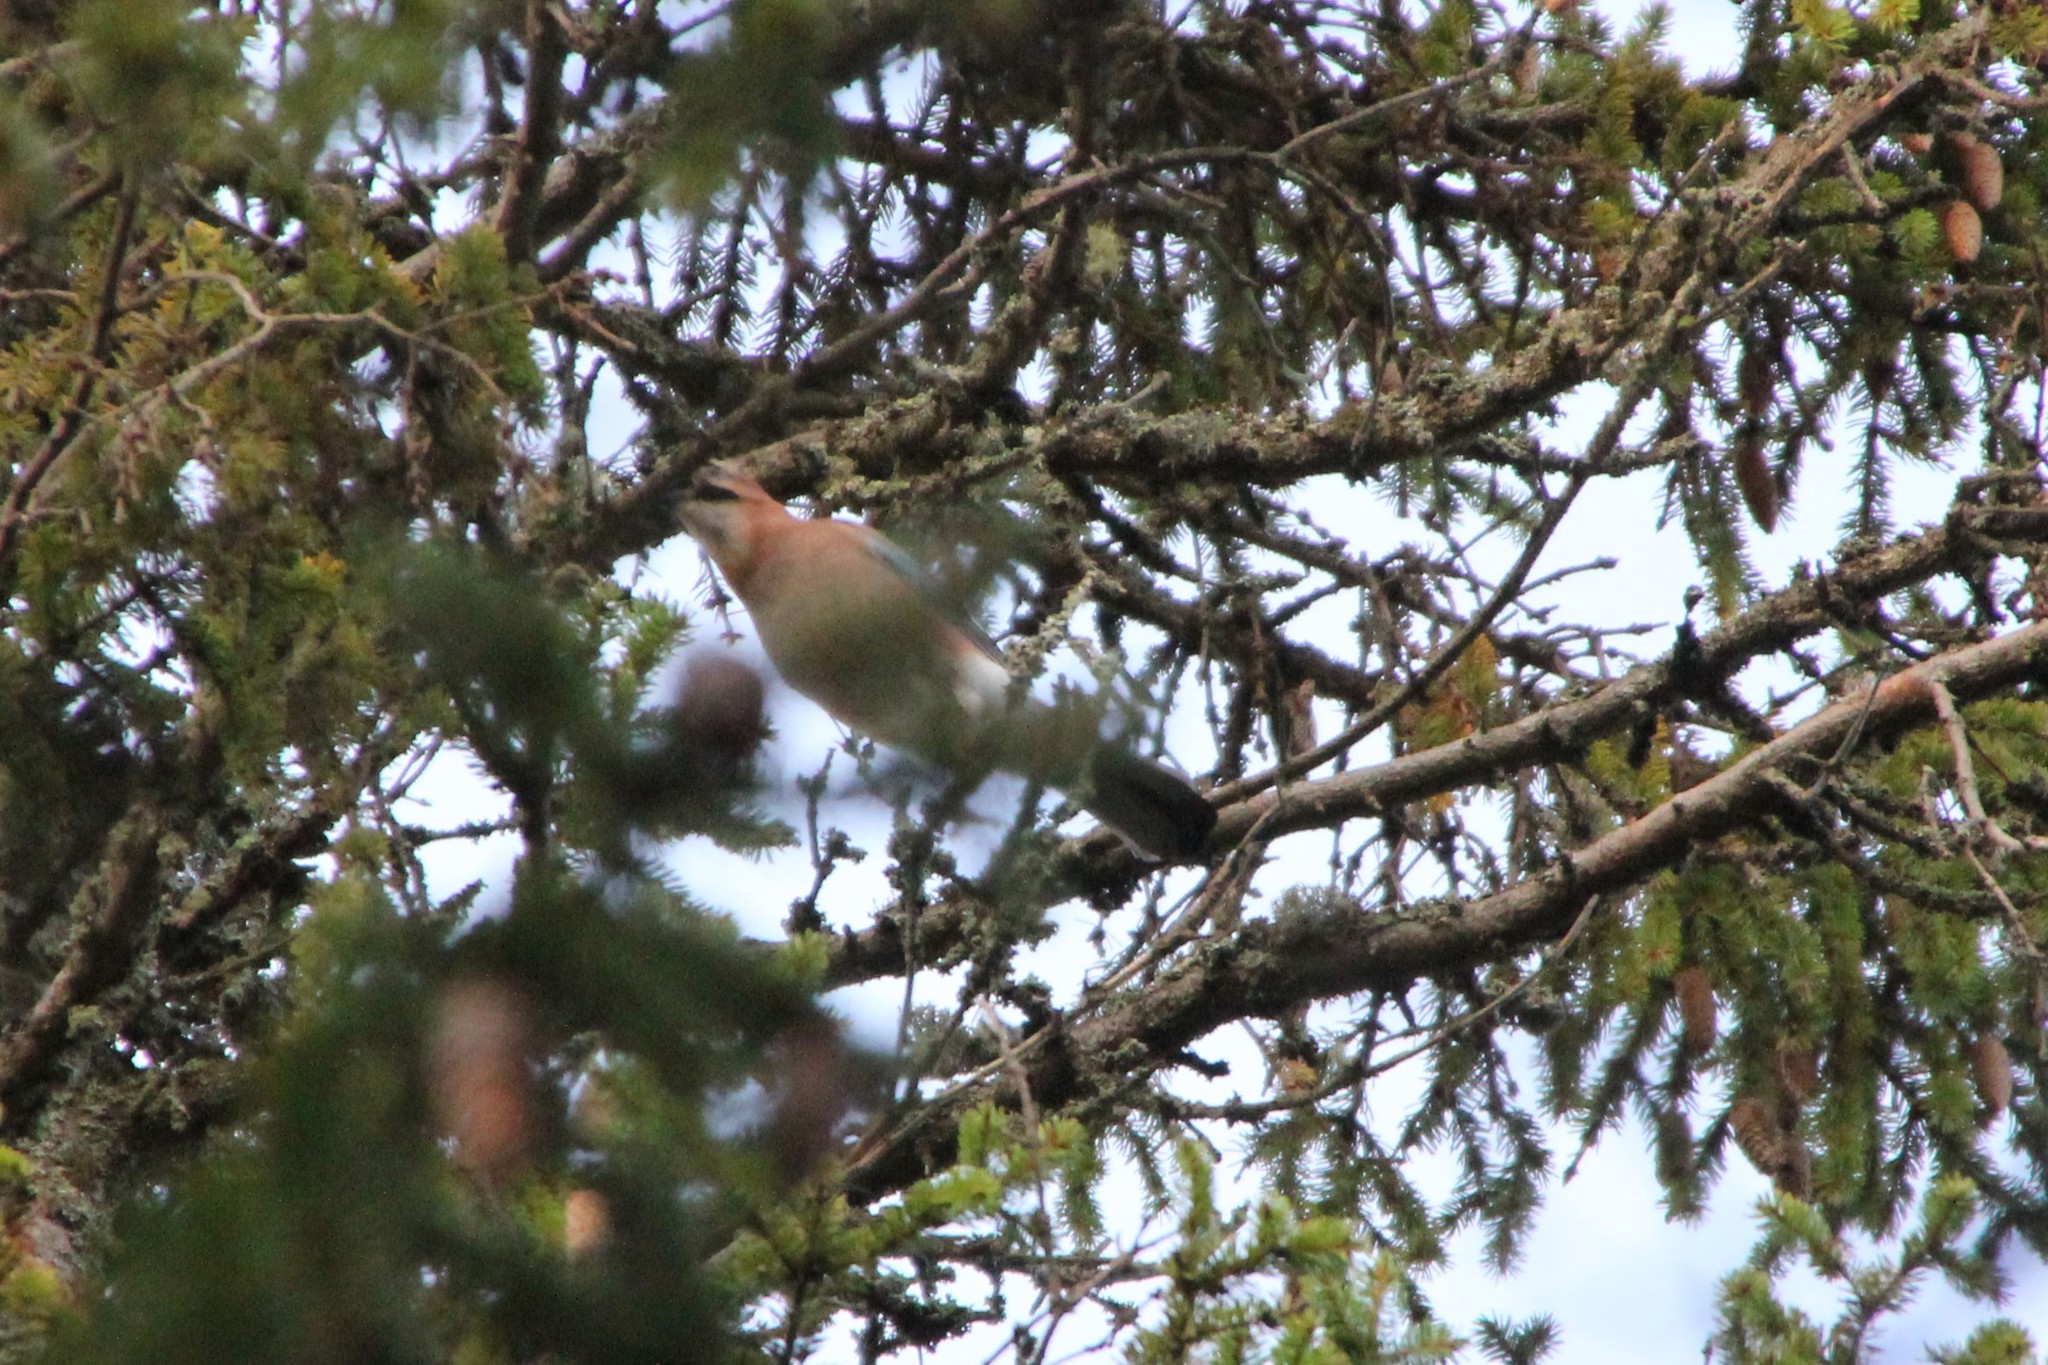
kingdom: Animalia
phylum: Chordata
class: Aves
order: Passeriformes
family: Corvidae
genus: Garrulus
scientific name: Garrulus glandarius
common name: Eurasian jay
